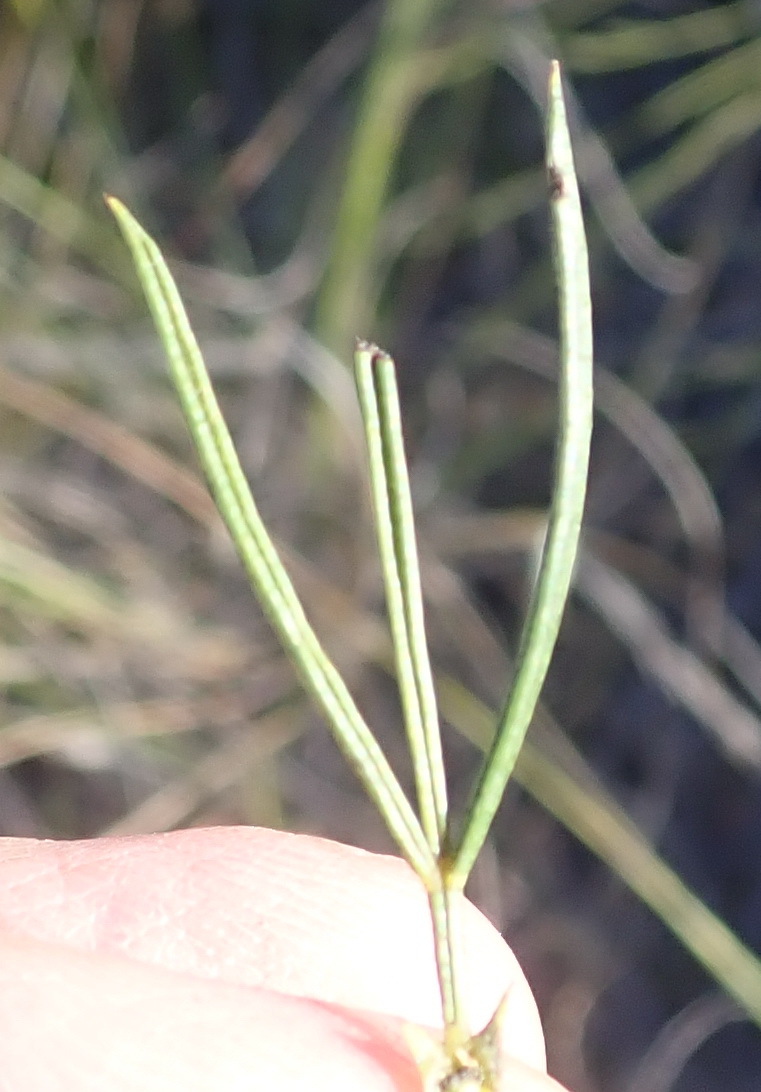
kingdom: Plantae
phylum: Tracheophyta
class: Magnoliopsida
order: Fabales
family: Fabaceae
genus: Psoralea
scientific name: Psoralea diturnerae
